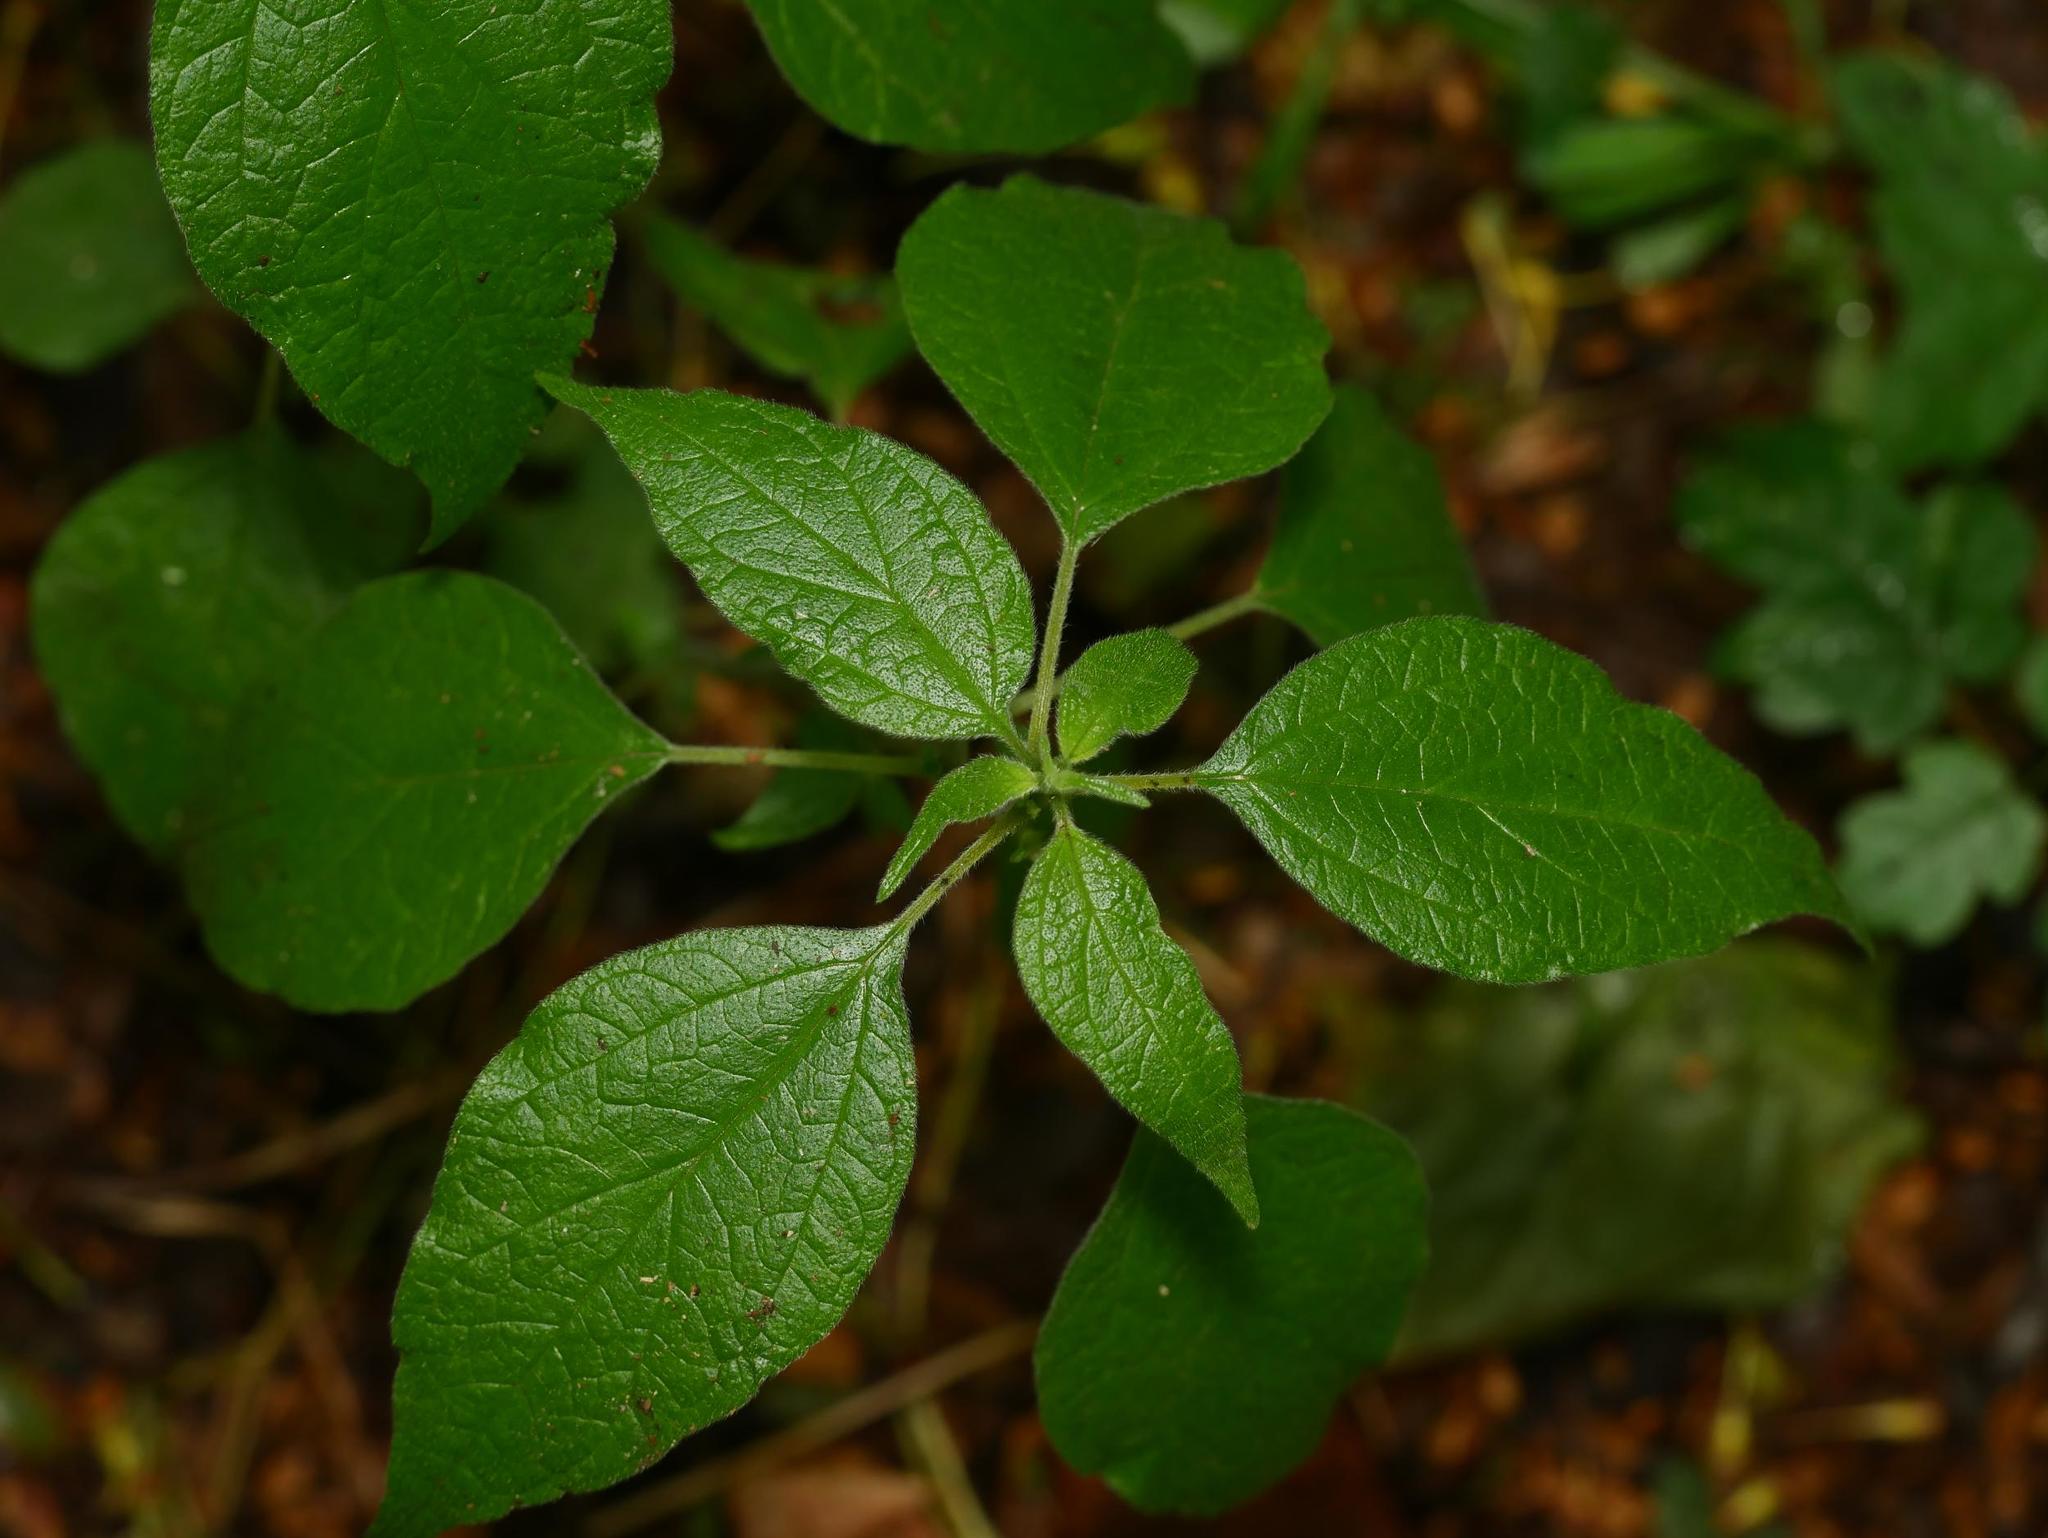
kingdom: Plantae
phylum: Tracheophyta
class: Magnoliopsida
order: Rosales
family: Urticaceae
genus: Parietaria
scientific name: Parietaria officinalis
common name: Eastern pellitory-of-the-wall
